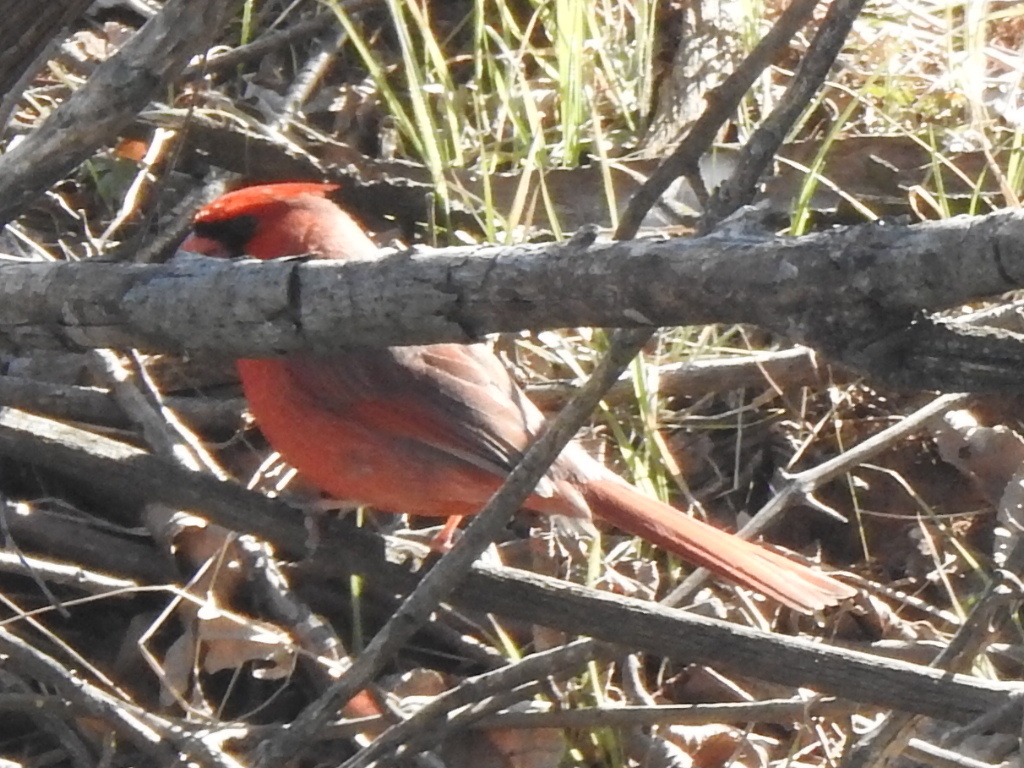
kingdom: Animalia
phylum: Chordata
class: Aves
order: Passeriformes
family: Cardinalidae
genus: Cardinalis
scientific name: Cardinalis cardinalis
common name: Northern cardinal
